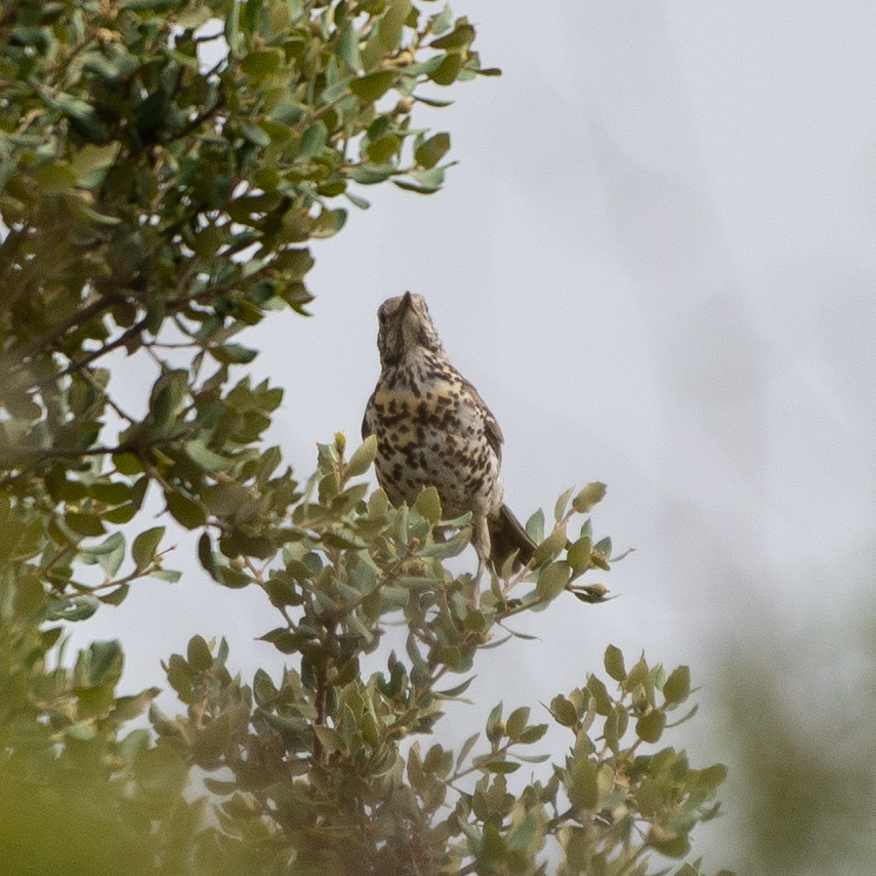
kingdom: Animalia
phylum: Chordata
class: Aves
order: Passeriformes
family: Turdidae
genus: Turdus
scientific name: Turdus viscivorus
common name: Mistle thrush
